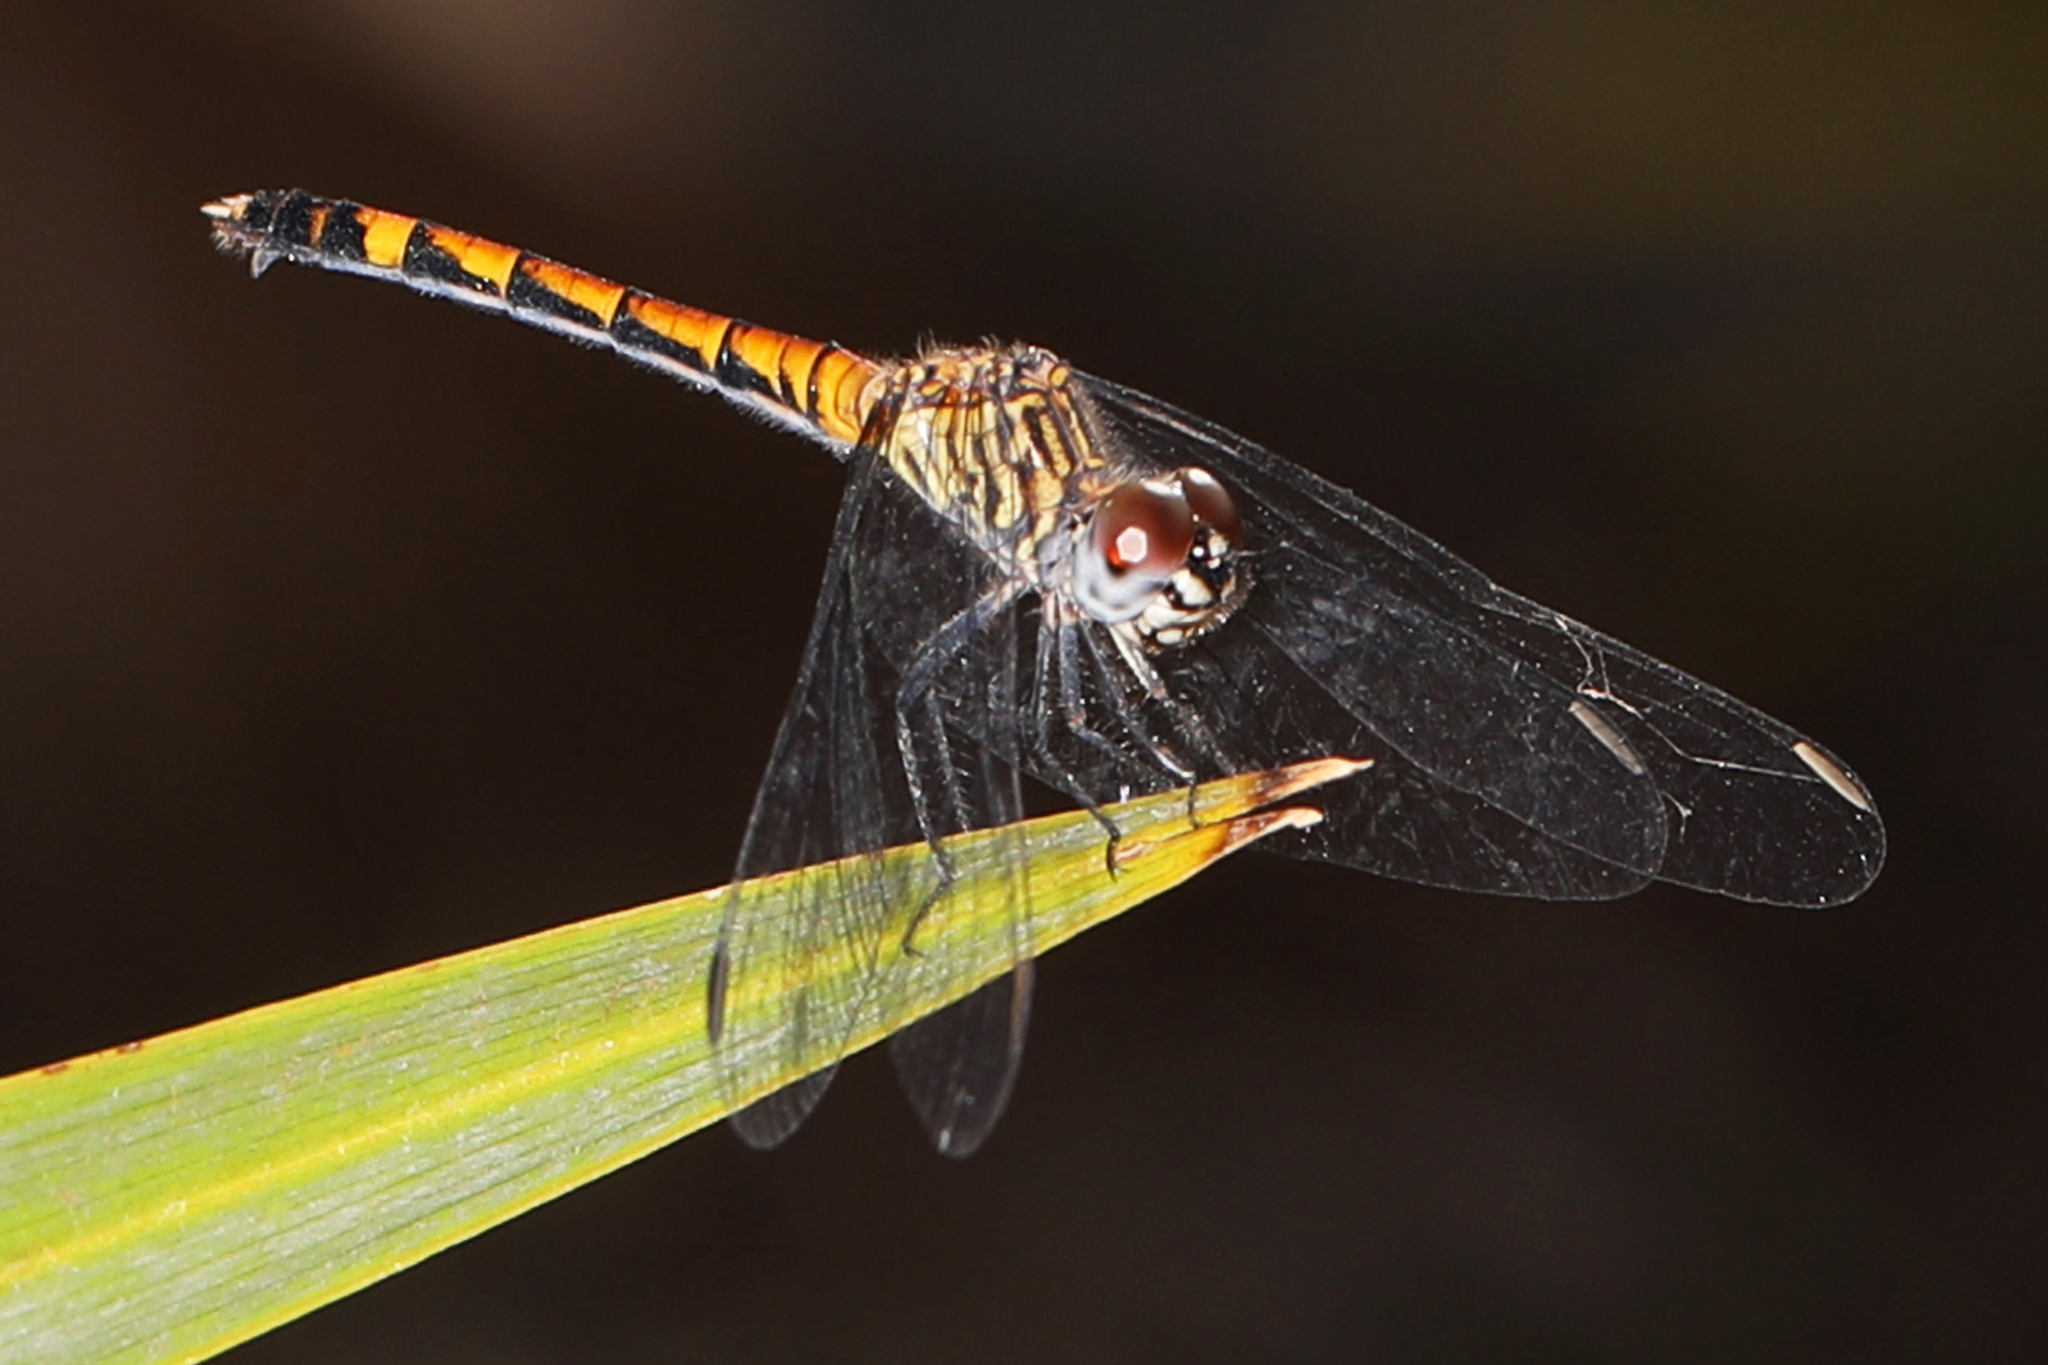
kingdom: Animalia
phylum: Arthropoda
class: Insecta
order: Odonata
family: Libellulidae
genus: Erythrodiplax
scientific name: Erythrodiplax berenice
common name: Seaside dragonlet
